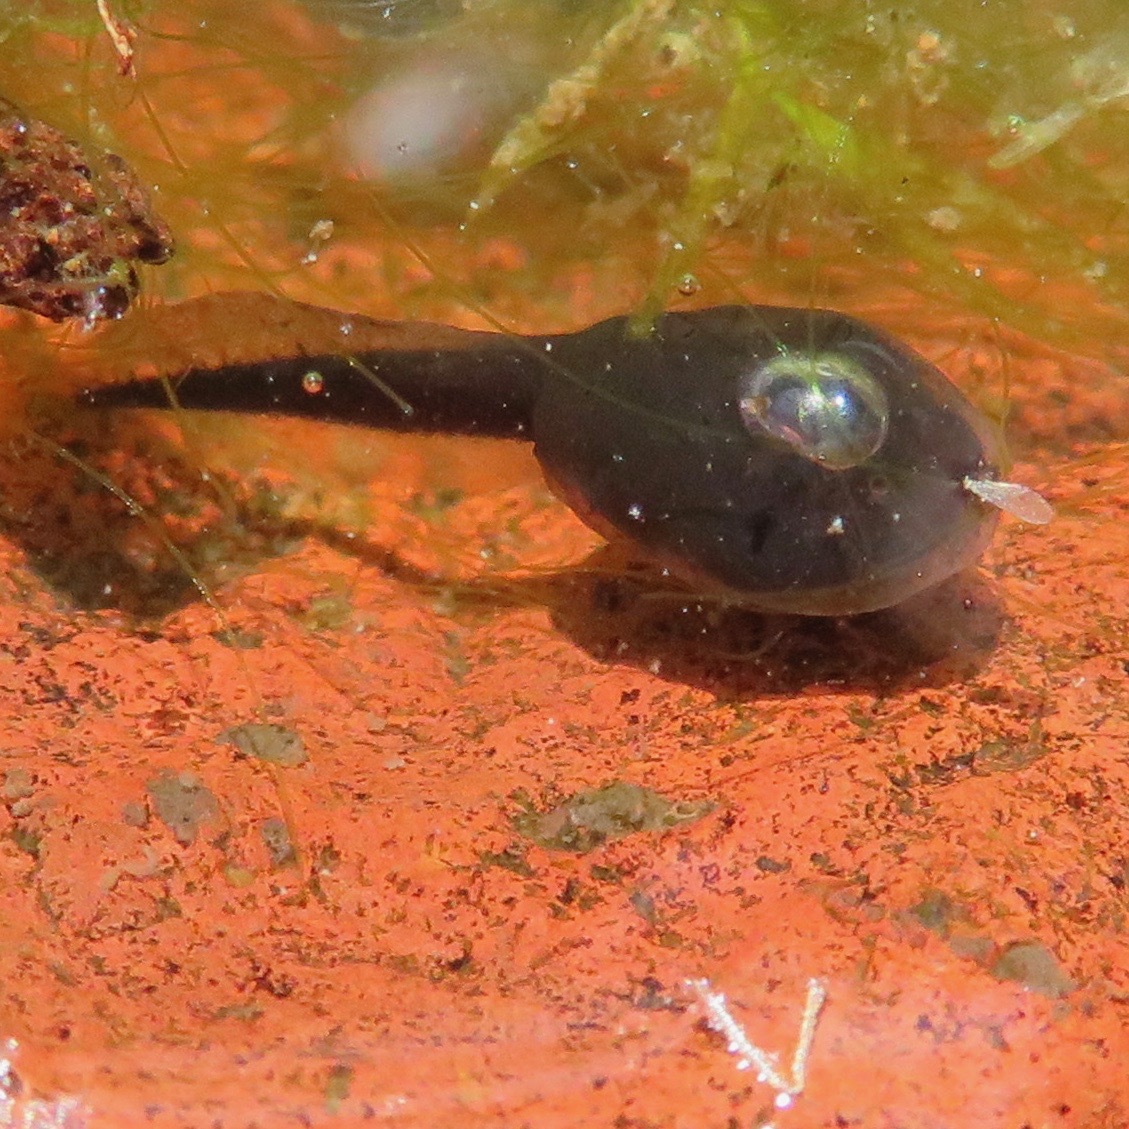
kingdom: Animalia
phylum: Chordata
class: Amphibia
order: Anura
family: Bufonidae
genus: Anaxyrus
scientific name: Anaxyrus boreas
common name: Western toad
